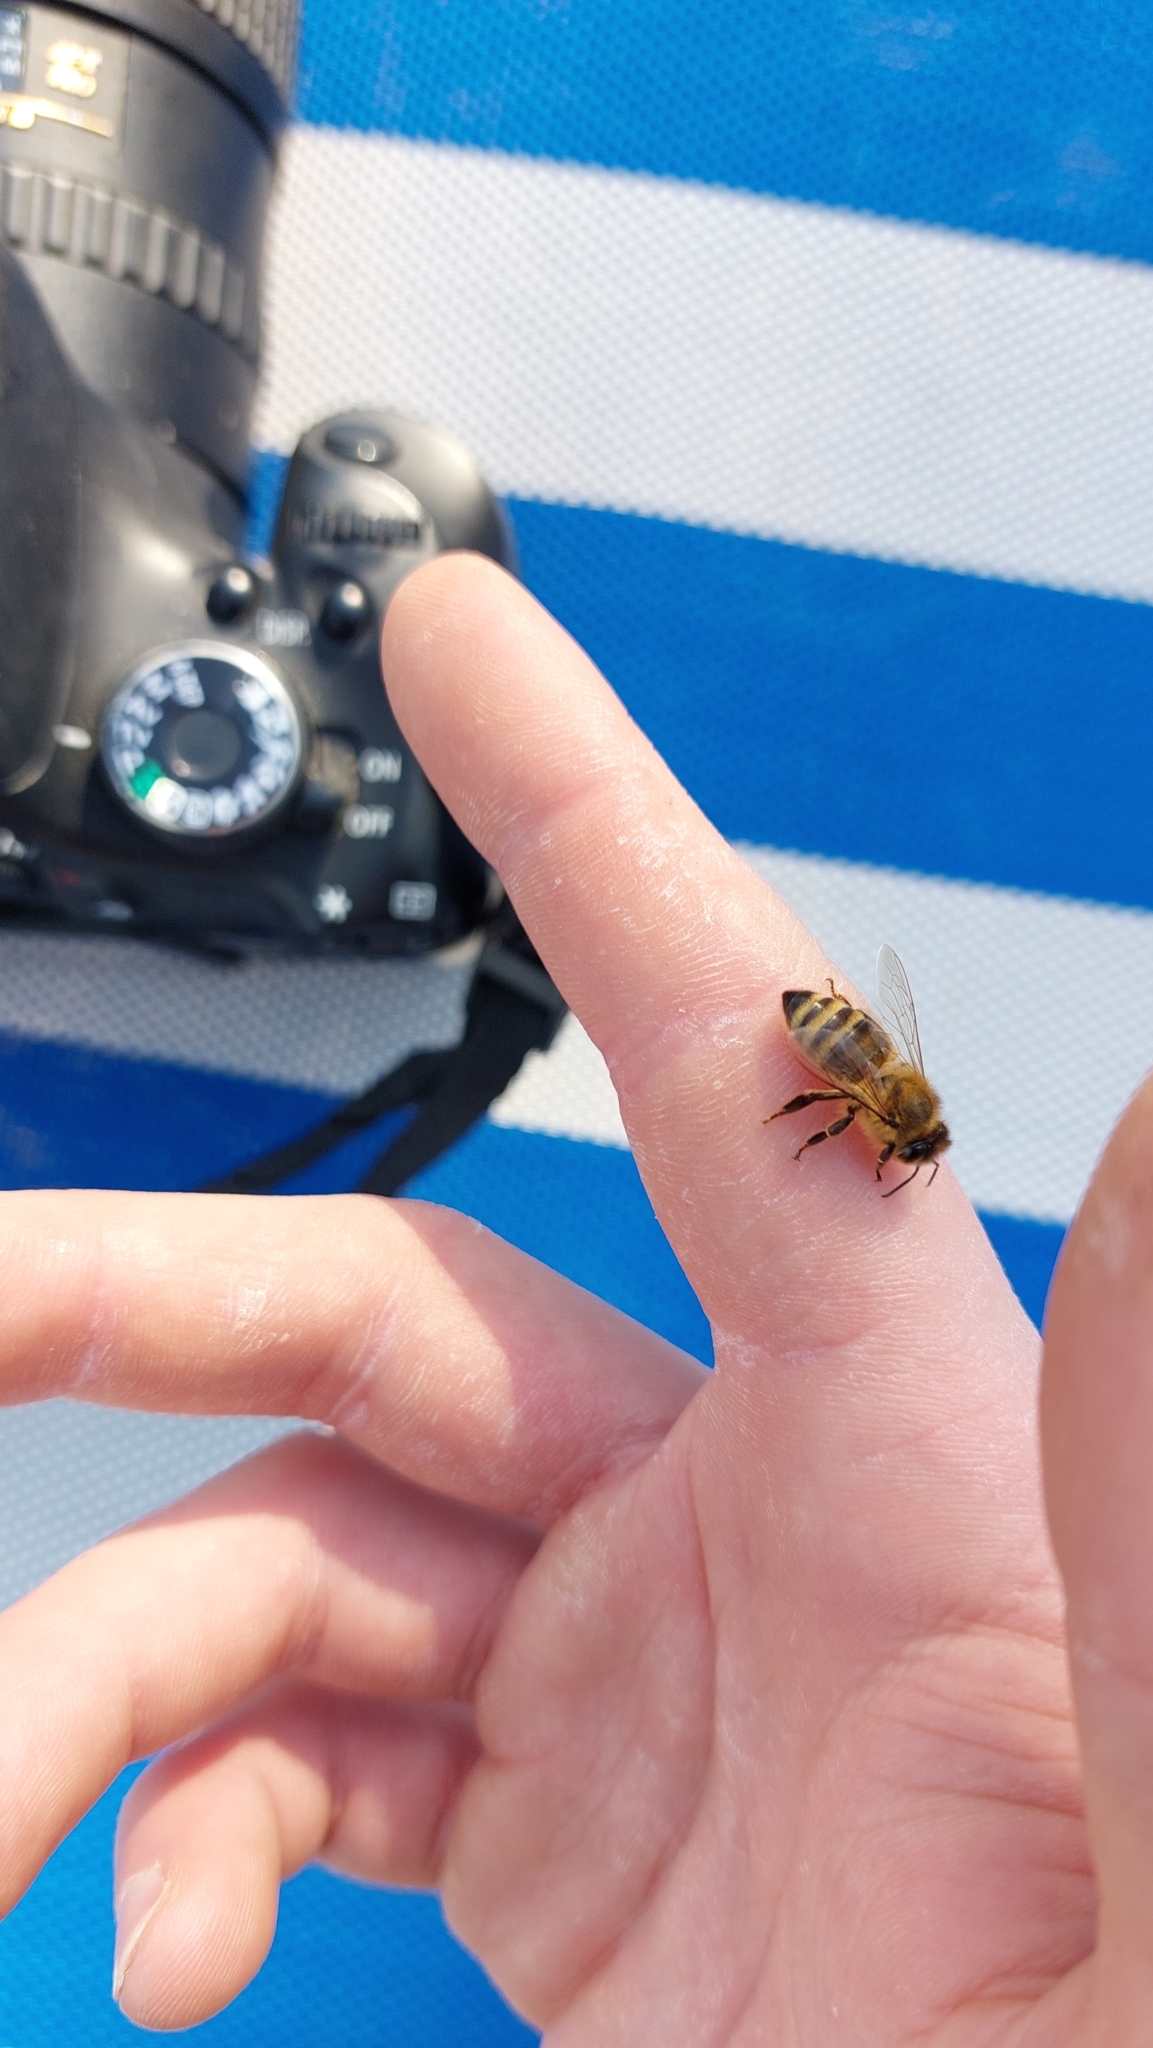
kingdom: Animalia
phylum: Arthropoda
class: Insecta
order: Hymenoptera
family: Apidae
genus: Apis
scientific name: Apis mellifera
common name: Honey bee
